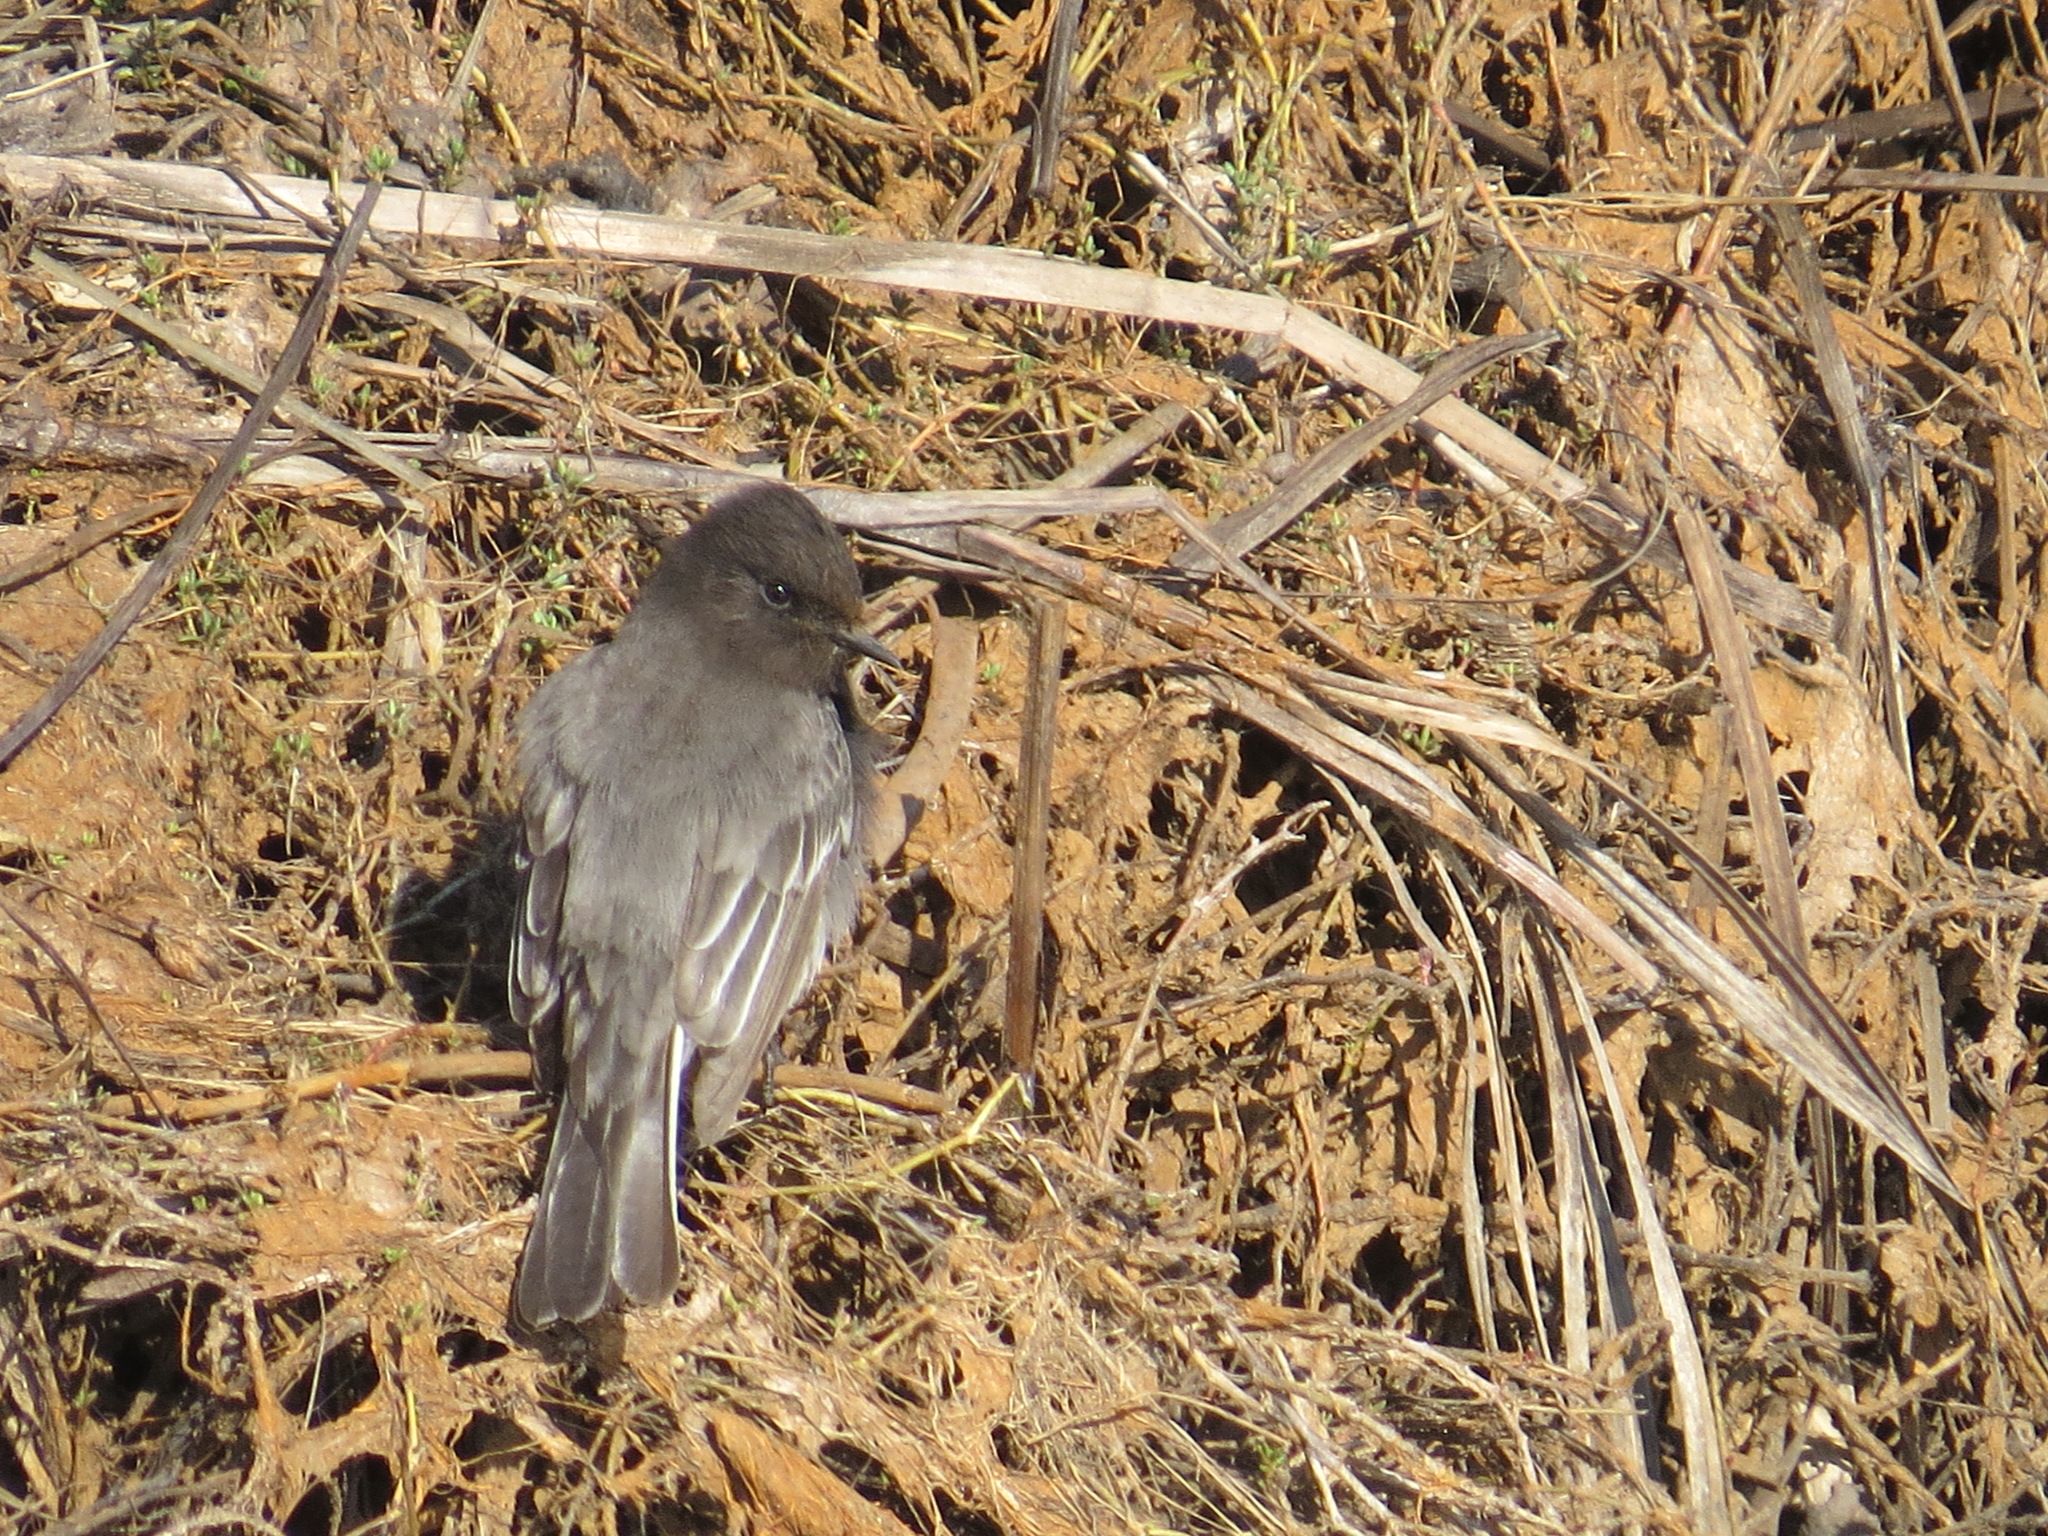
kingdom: Animalia
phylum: Chordata
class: Aves
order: Passeriformes
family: Tyrannidae
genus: Sayornis
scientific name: Sayornis nigricans
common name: Black phoebe
